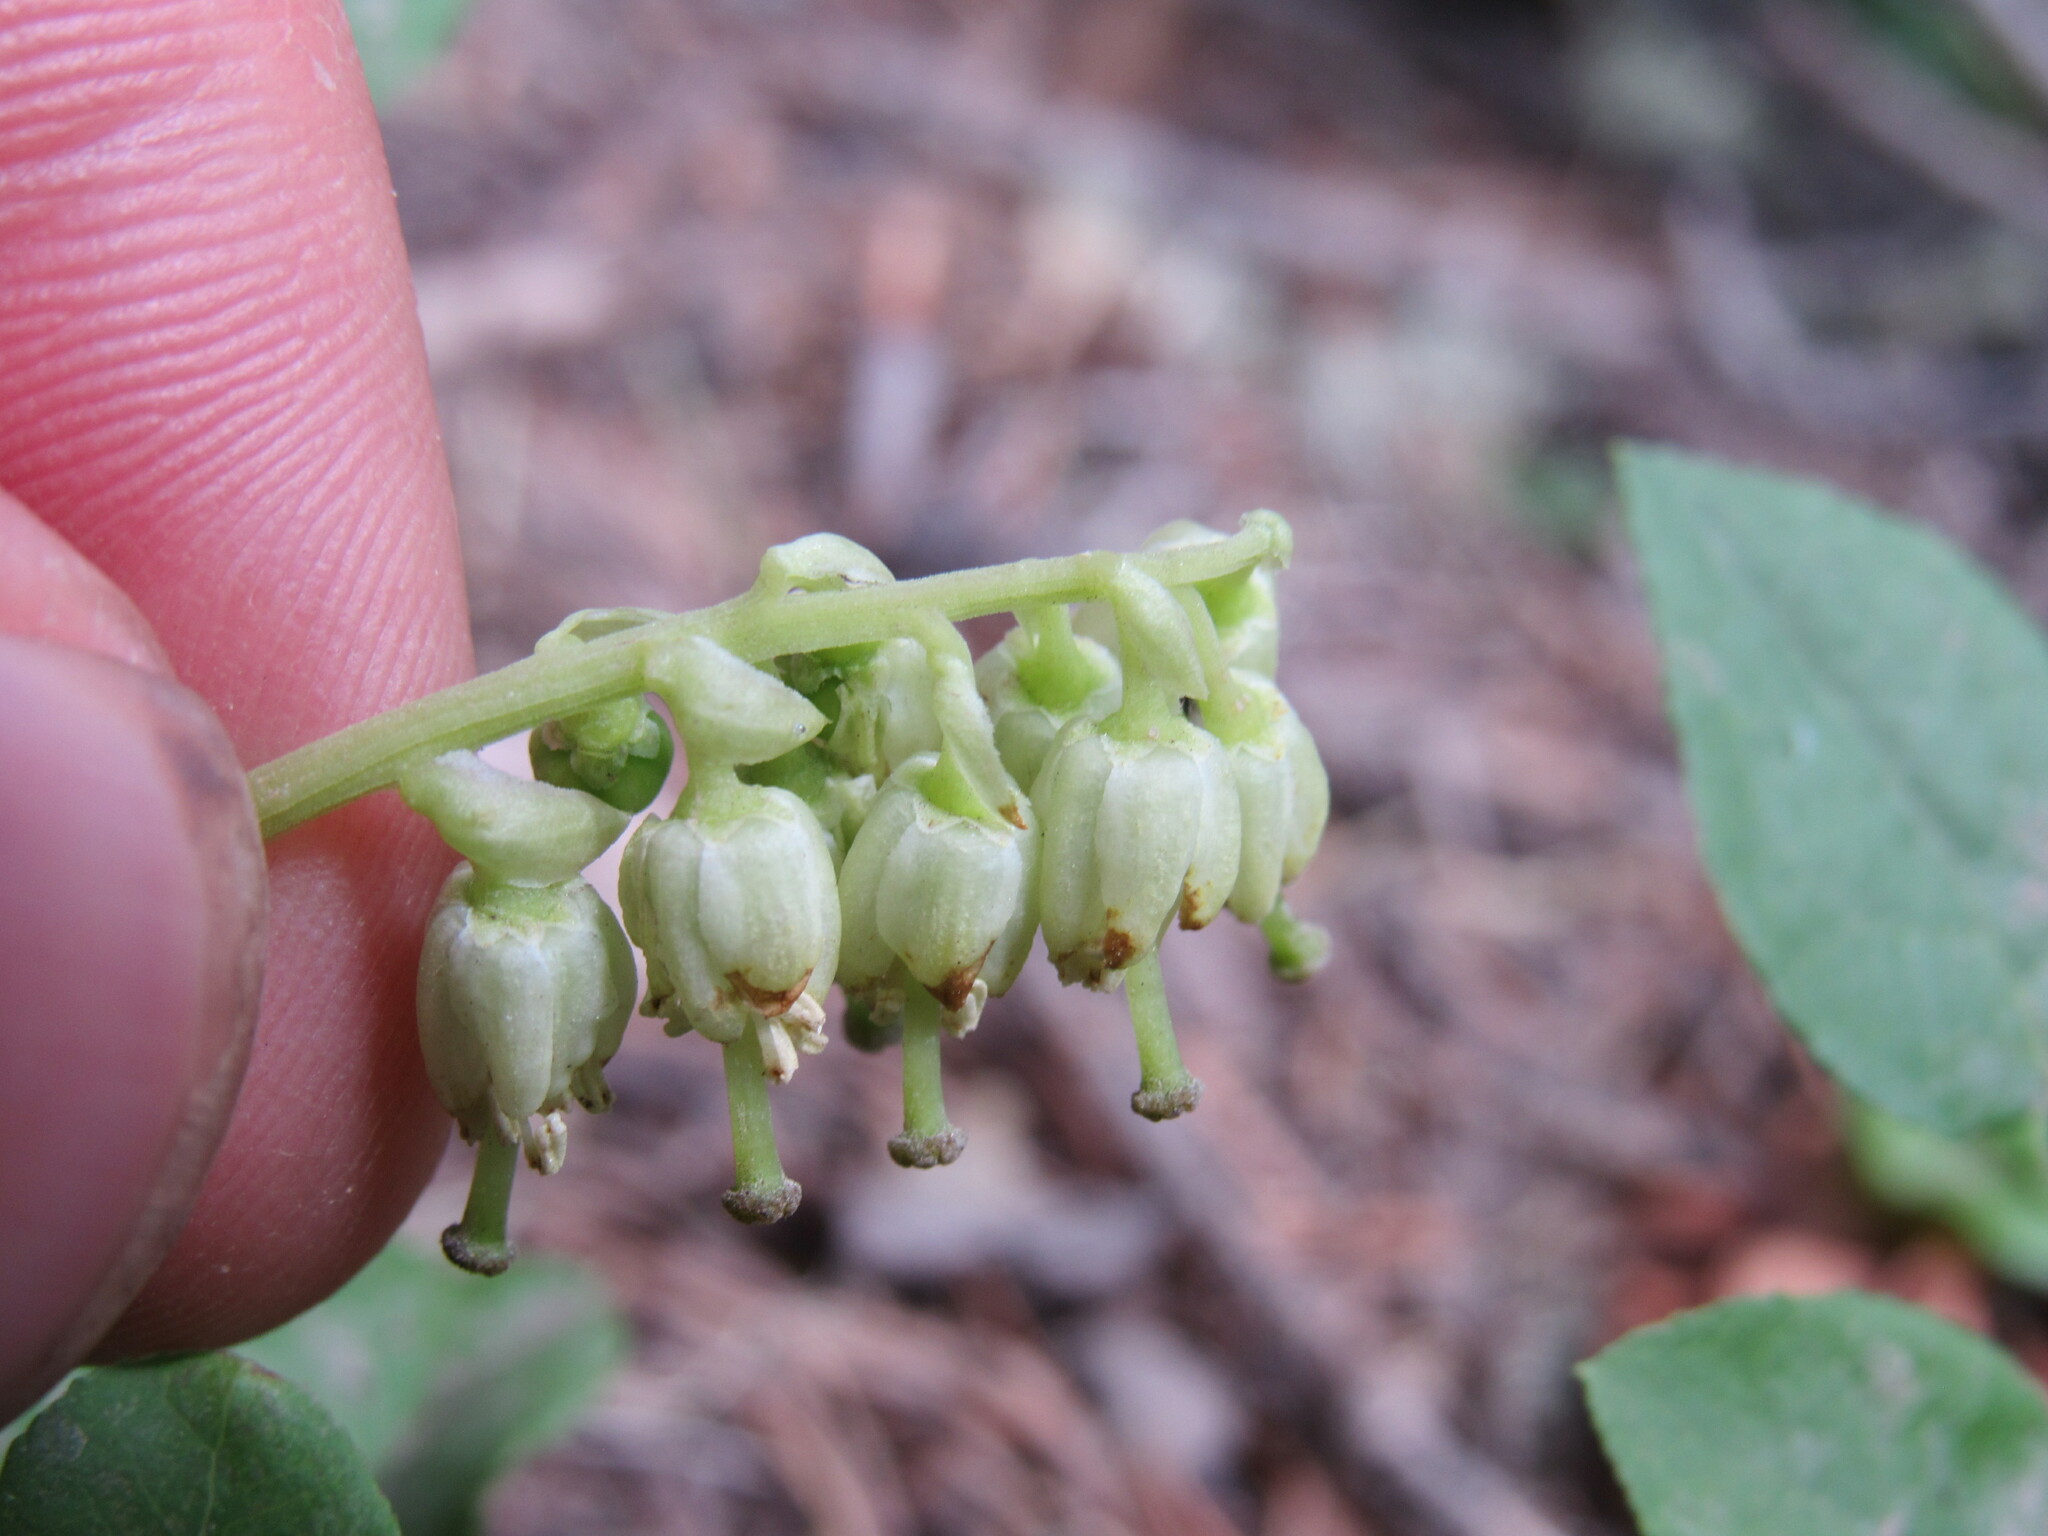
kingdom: Plantae
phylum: Tracheophyta
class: Magnoliopsida
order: Ericales
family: Ericaceae
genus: Orthilia
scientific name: Orthilia secunda
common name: One-sided orthilia
